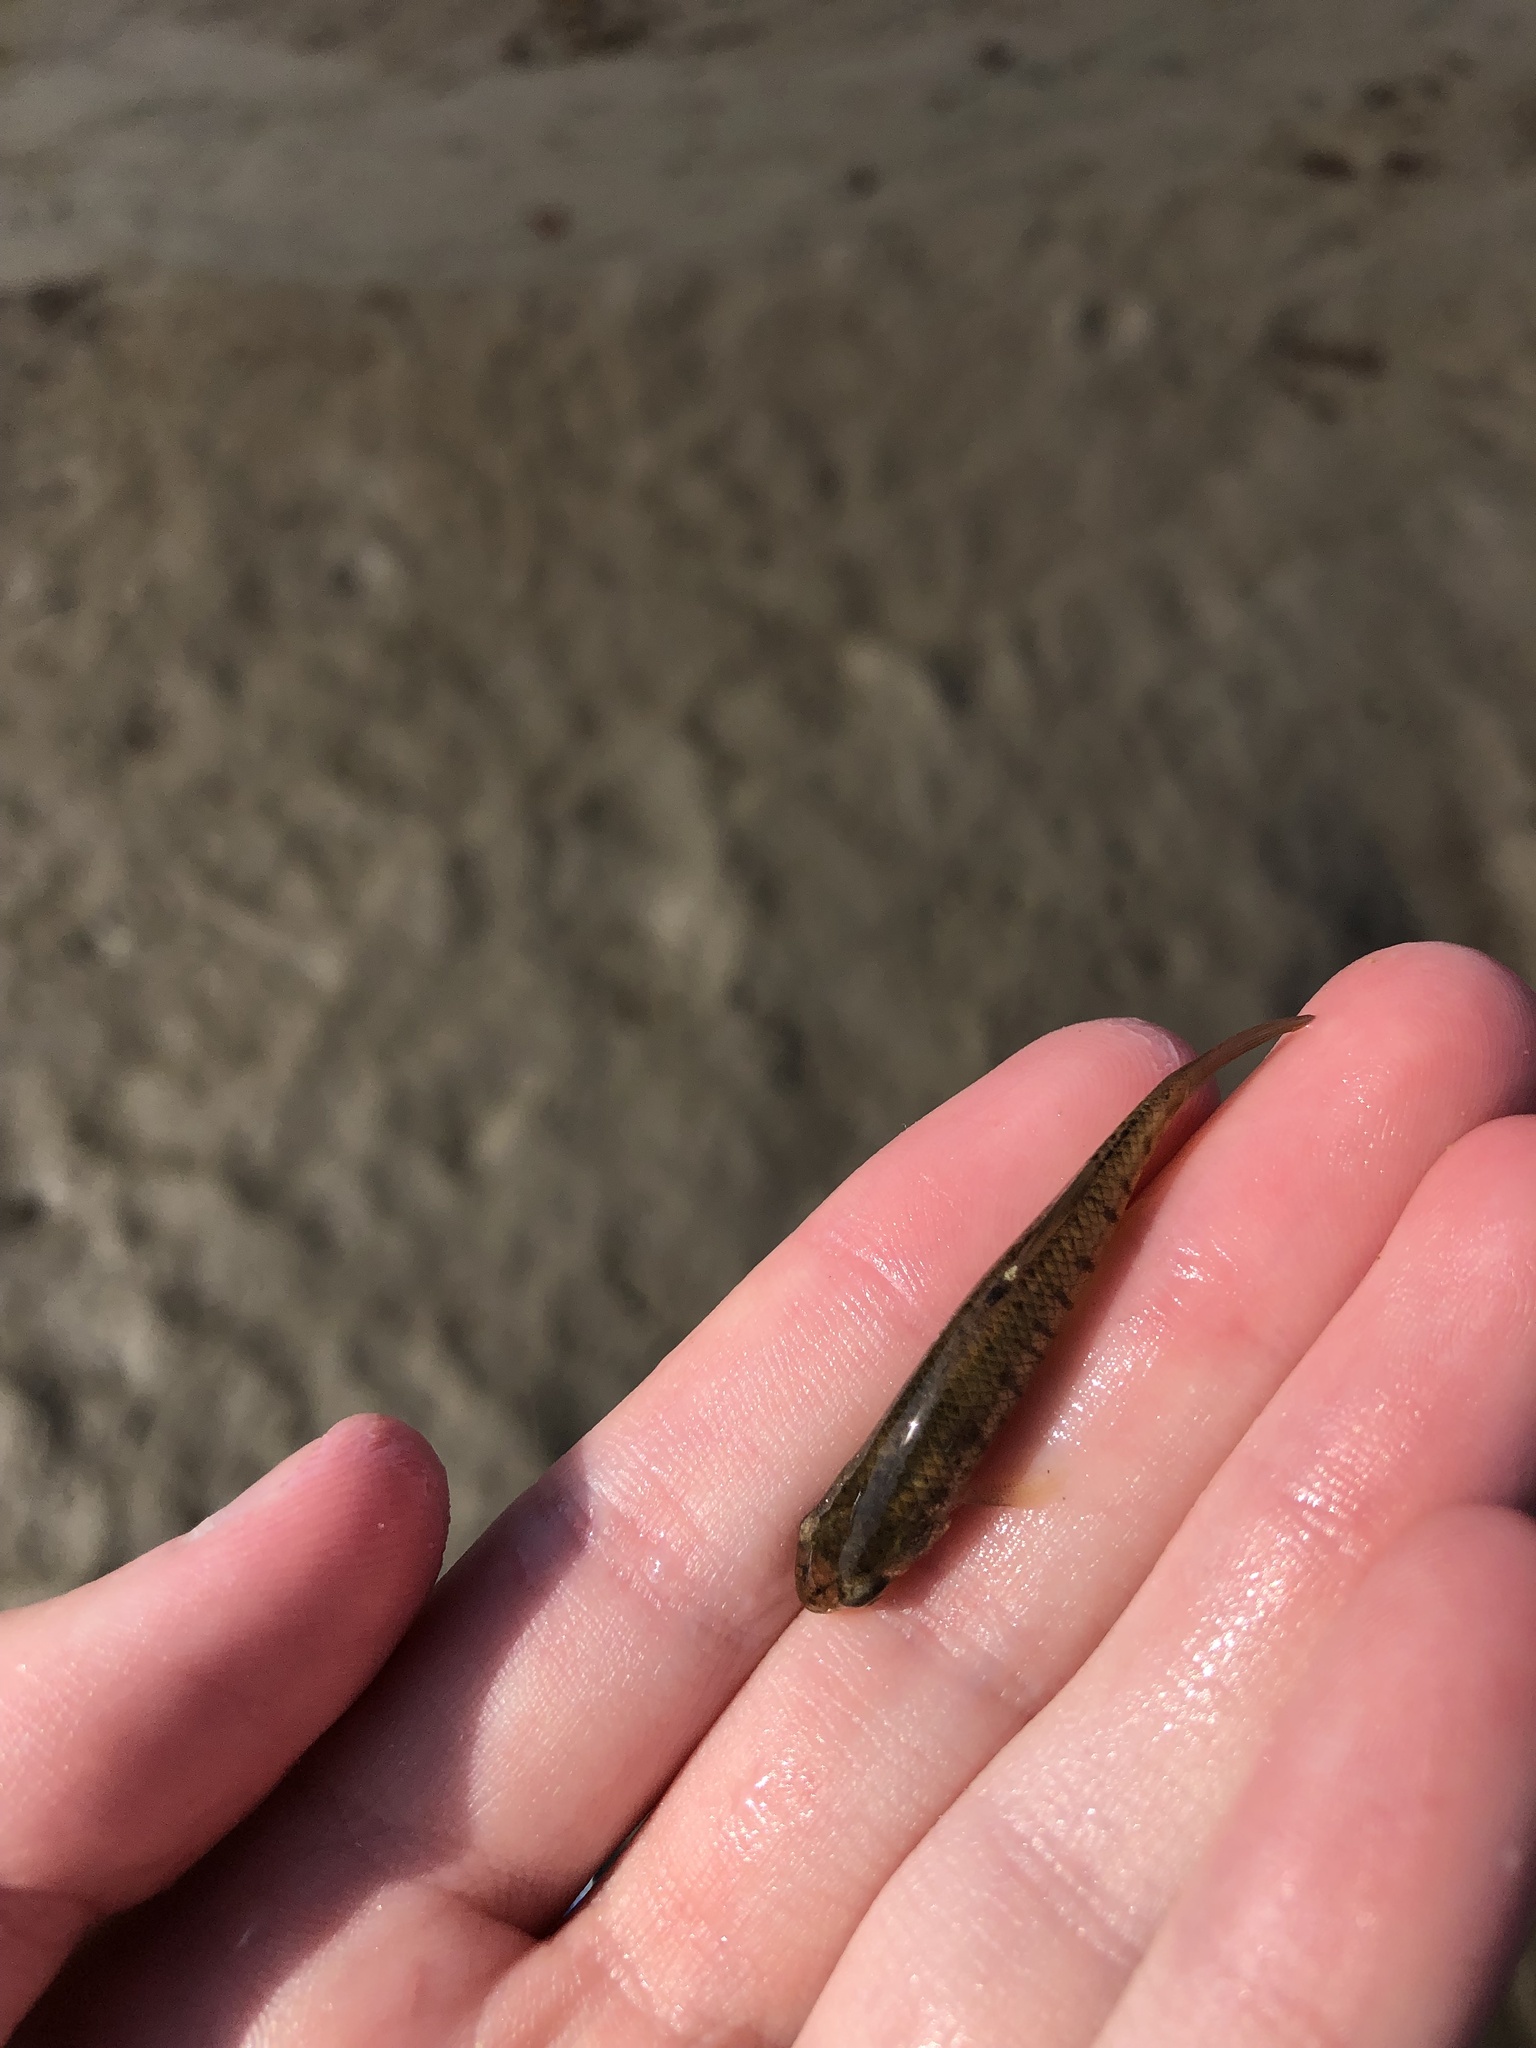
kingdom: Animalia
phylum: Chordata
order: Cyprinodontiformes
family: Fundulidae
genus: Fundulus
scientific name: Fundulus heteroclitus
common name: Mummichog
